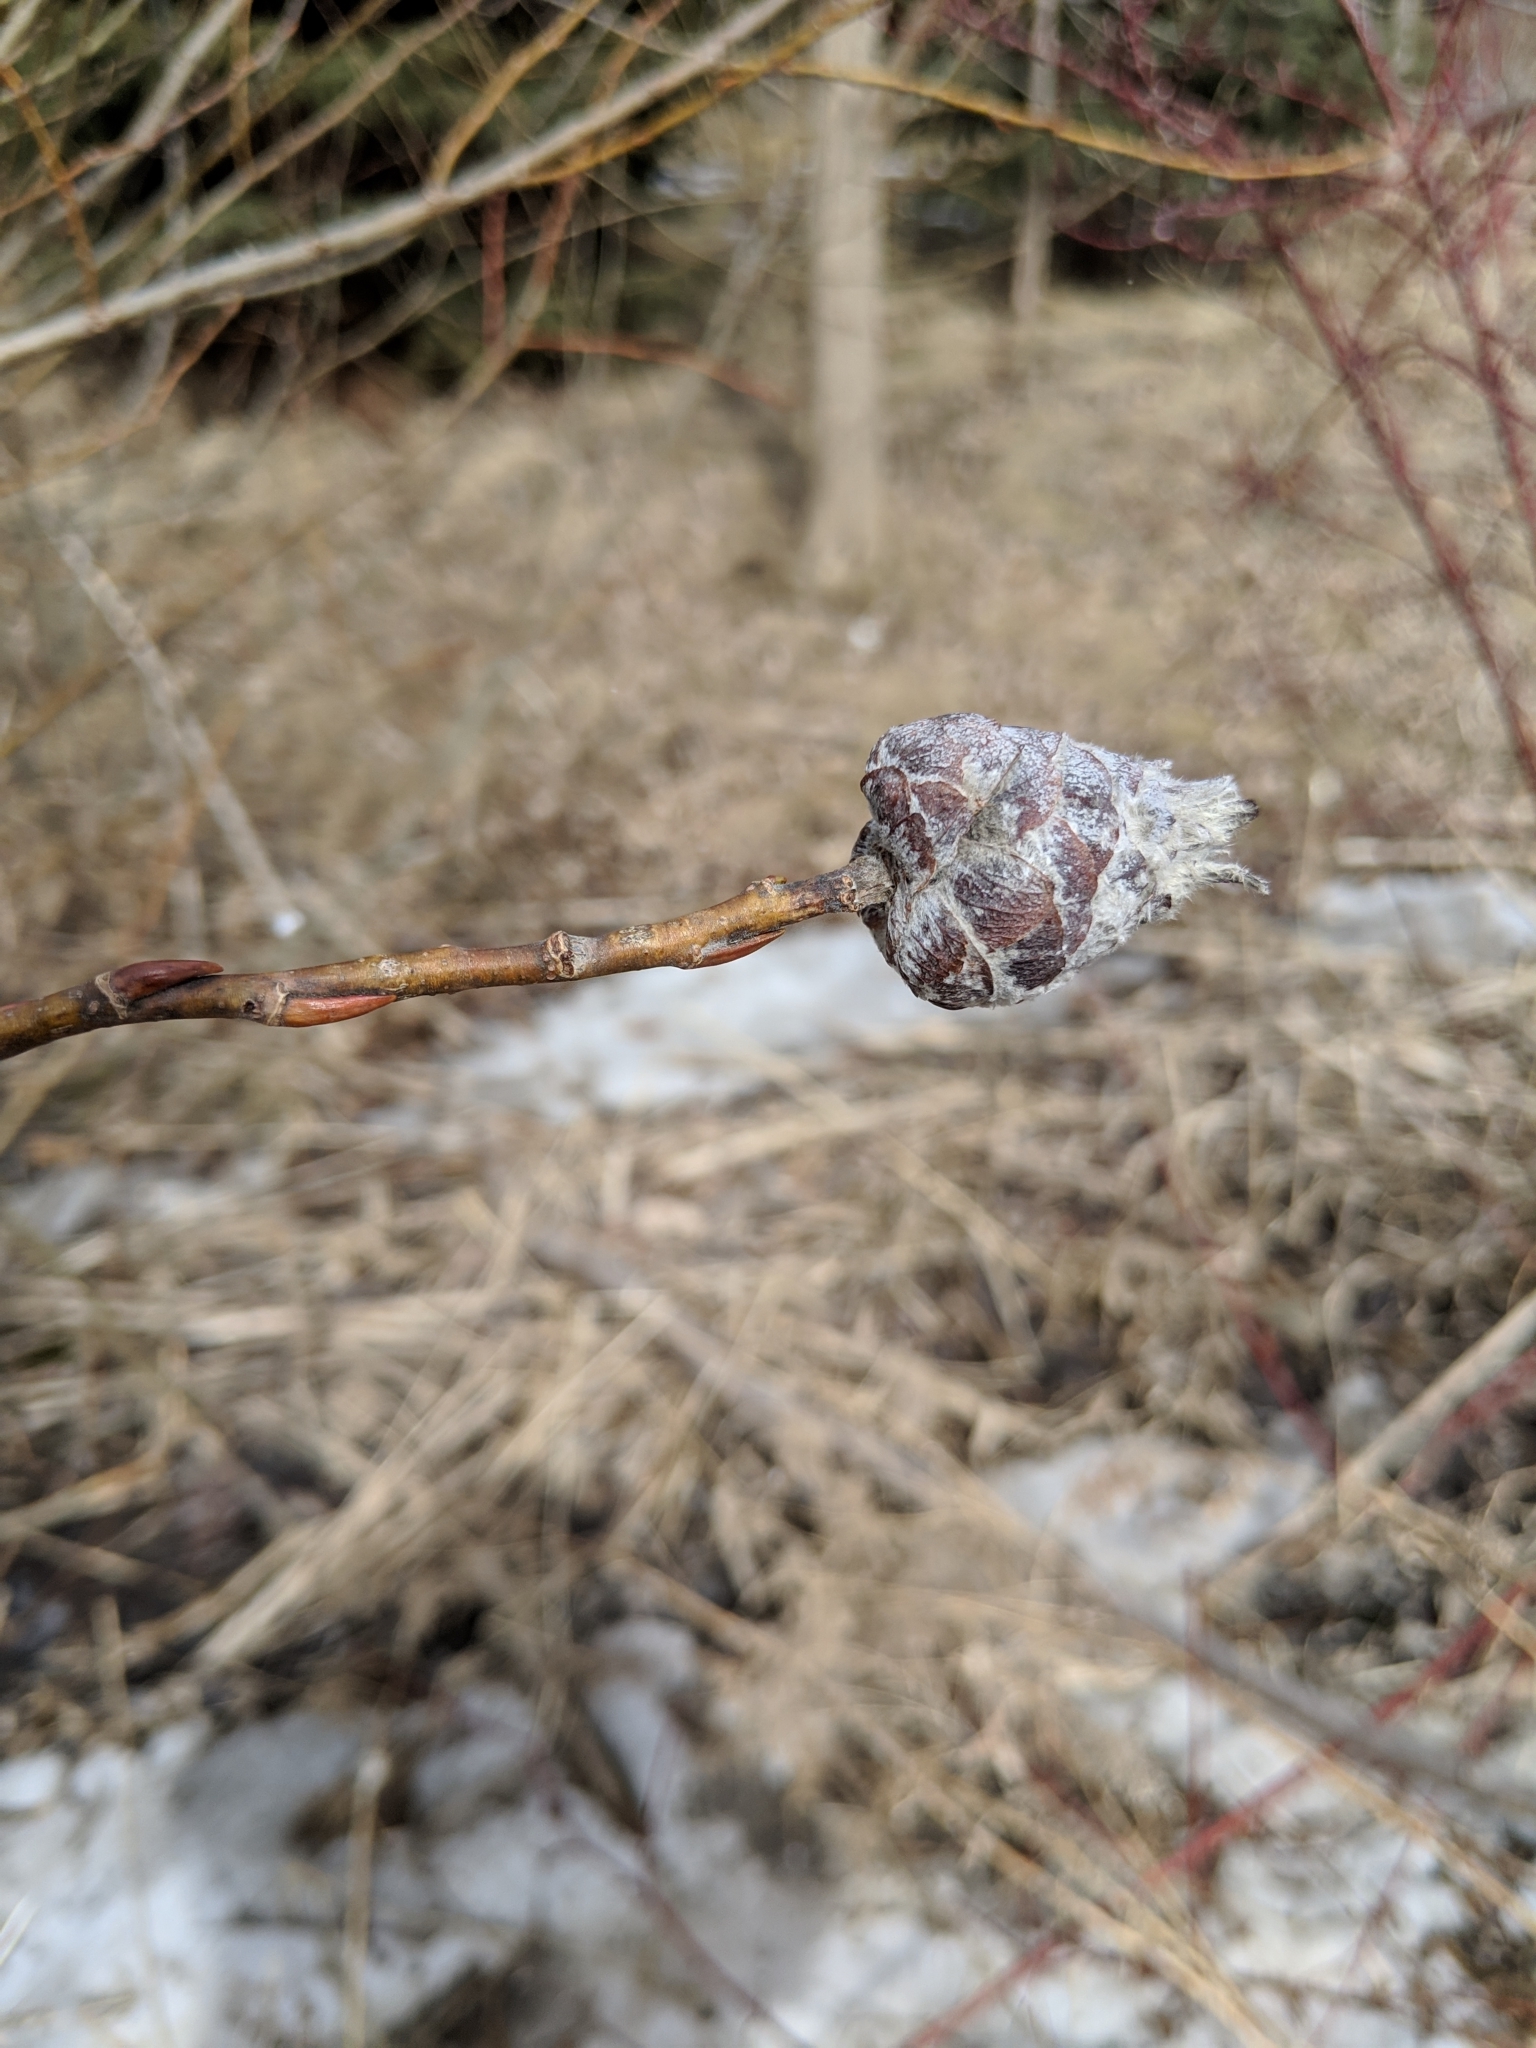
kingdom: Animalia
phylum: Arthropoda
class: Insecta
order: Diptera
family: Cecidomyiidae
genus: Rabdophaga
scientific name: Rabdophaga strobiloides
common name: Willow pinecone gall midge
